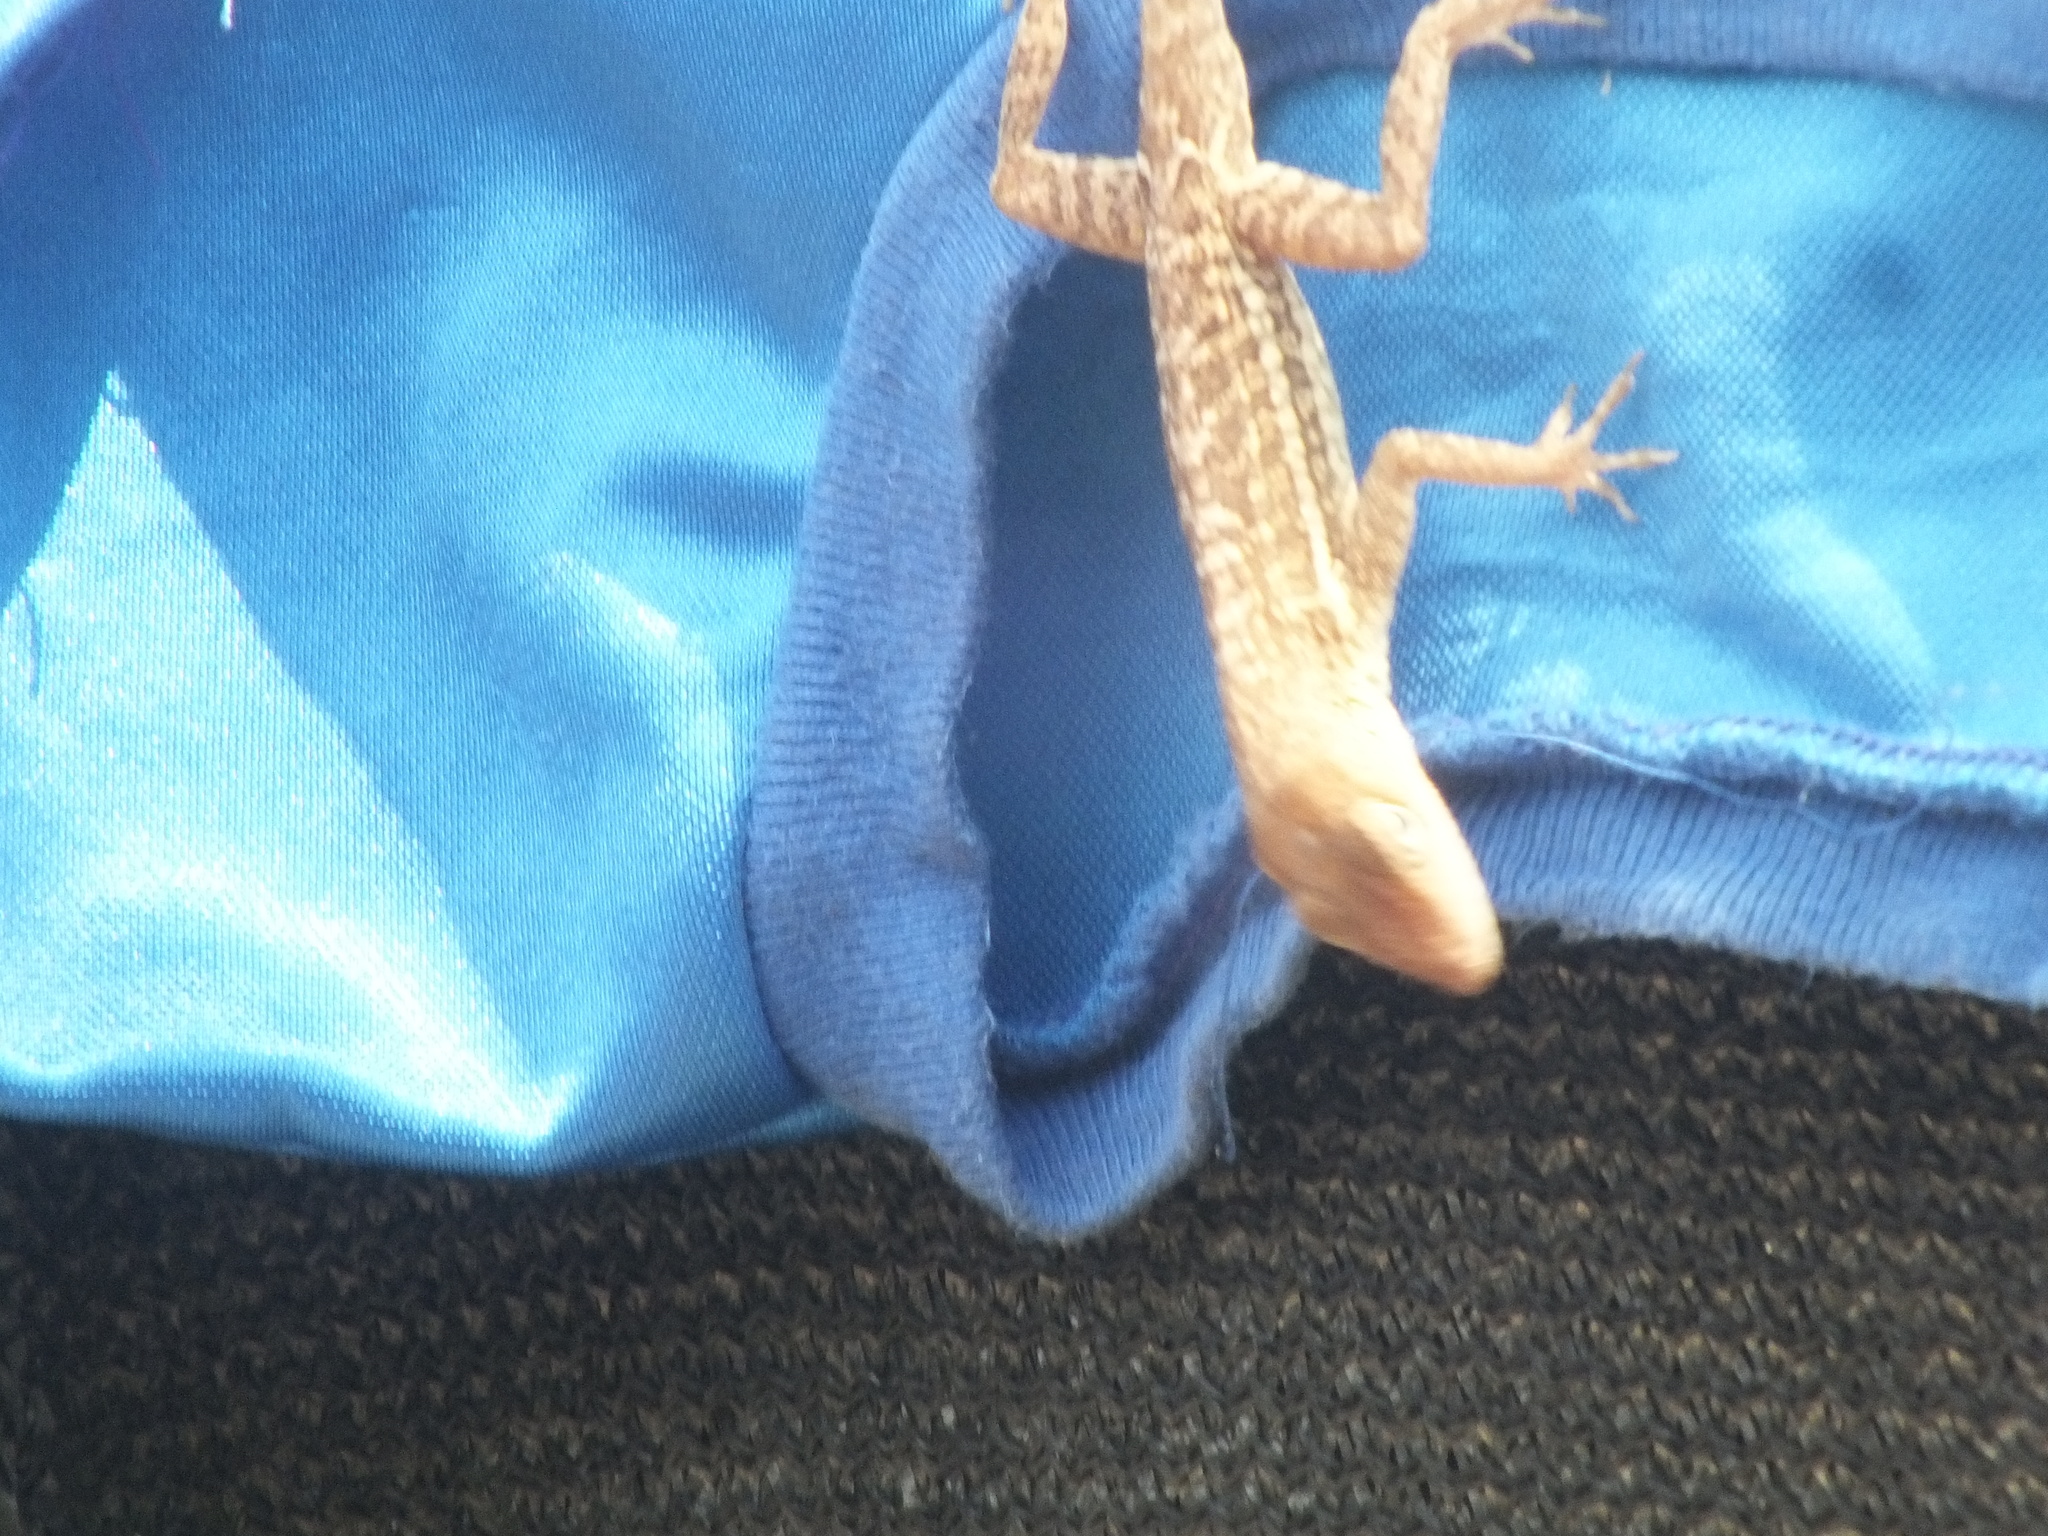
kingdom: Animalia
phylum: Chordata
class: Squamata
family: Dactyloidae
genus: Anolis
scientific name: Anolis lineatopus
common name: Stripefoot anole
